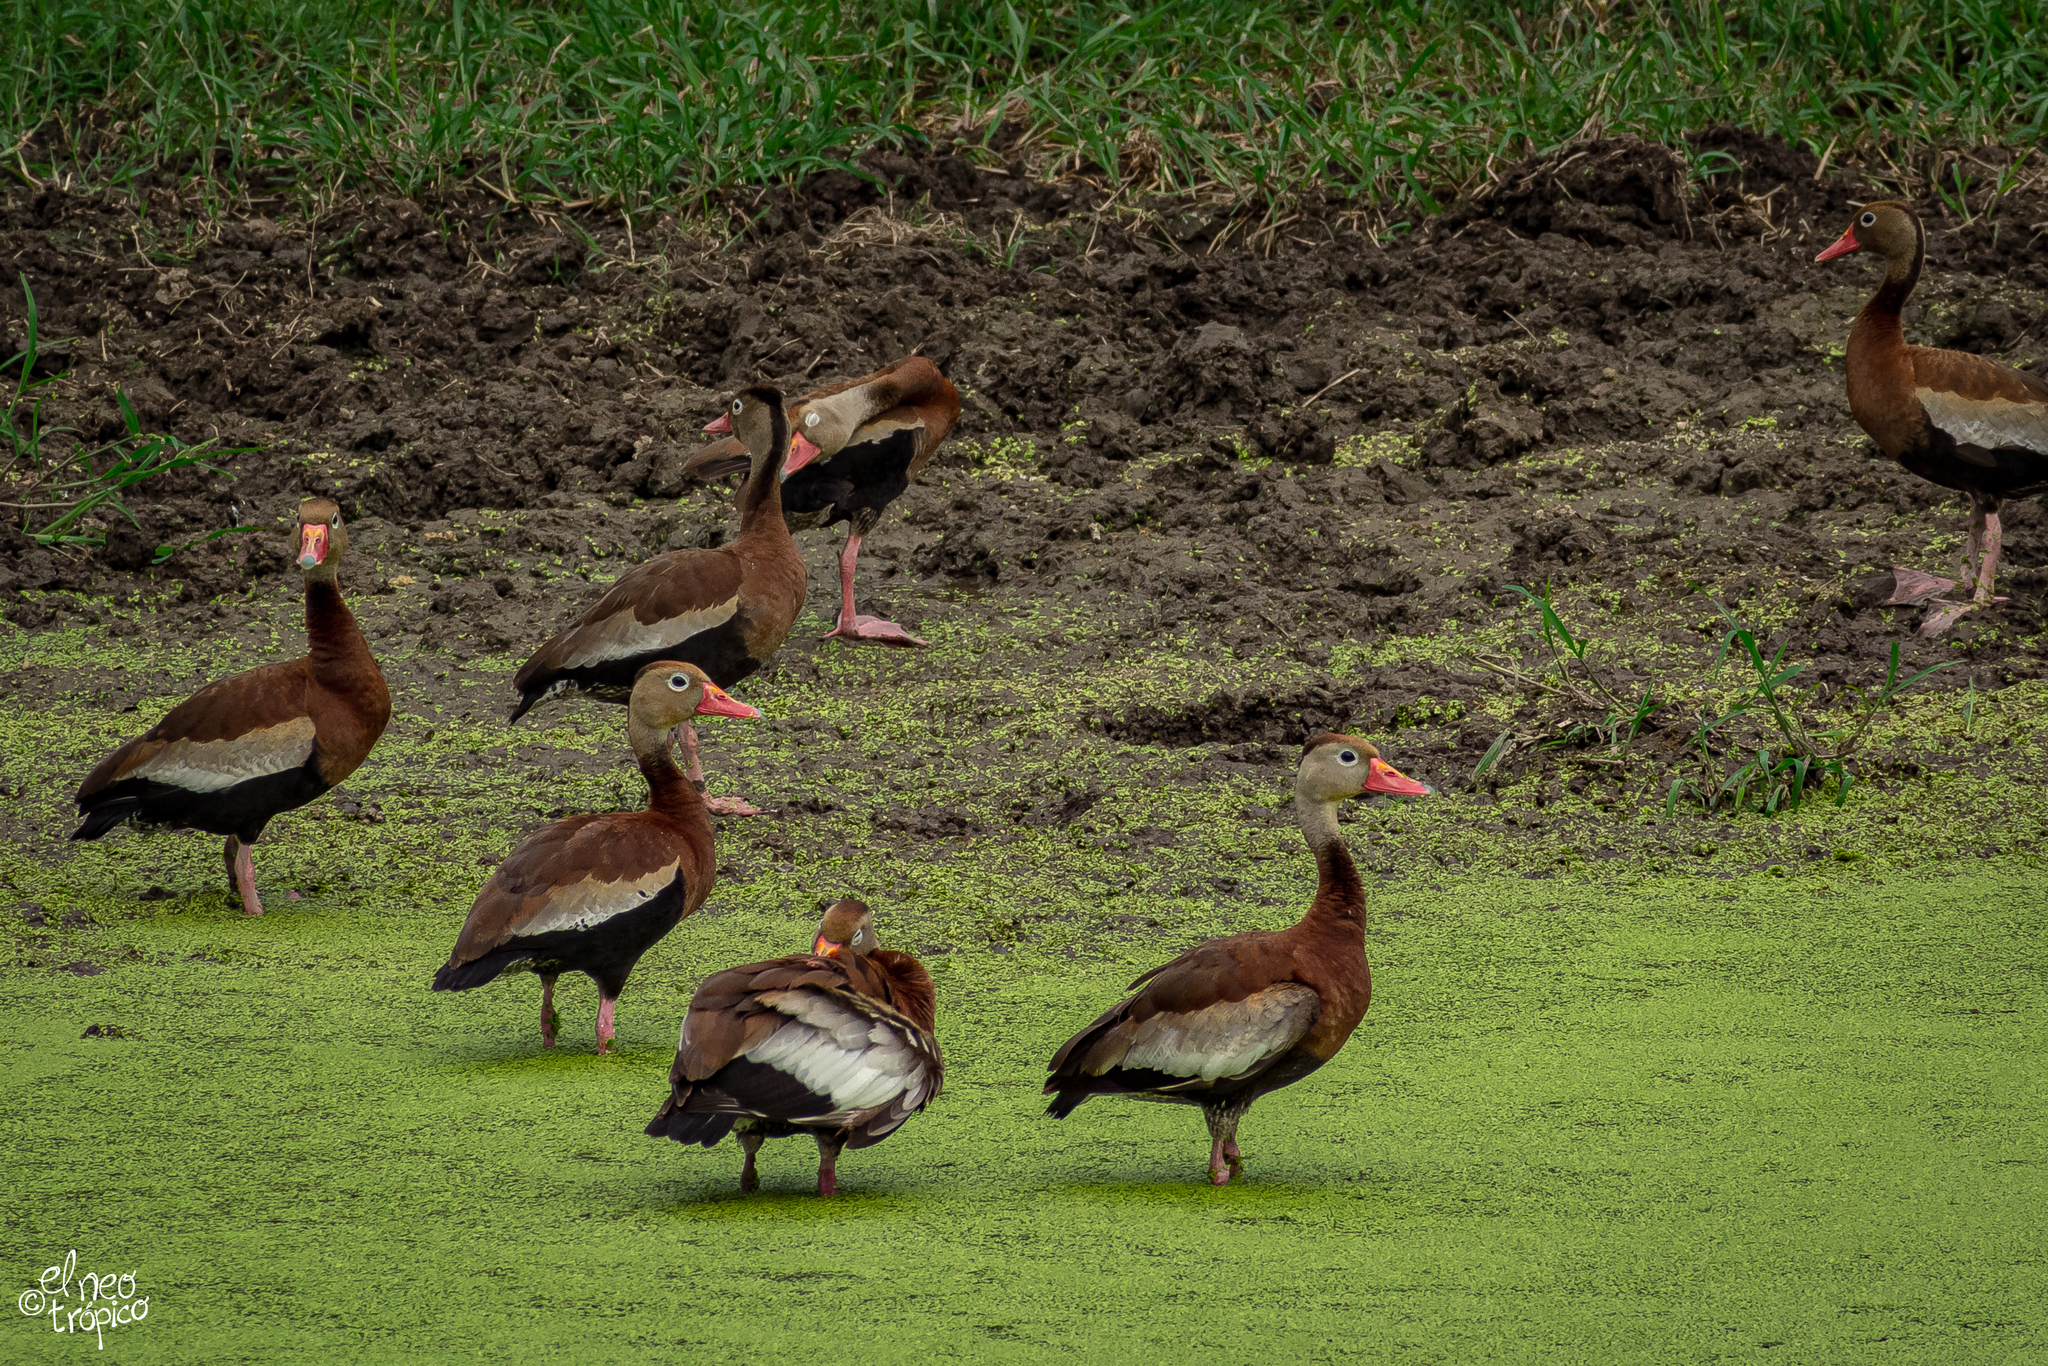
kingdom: Animalia
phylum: Chordata
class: Aves
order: Anseriformes
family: Anatidae
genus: Dendrocygna
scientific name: Dendrocygna autumnalis
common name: Black-bellied whistling duck
